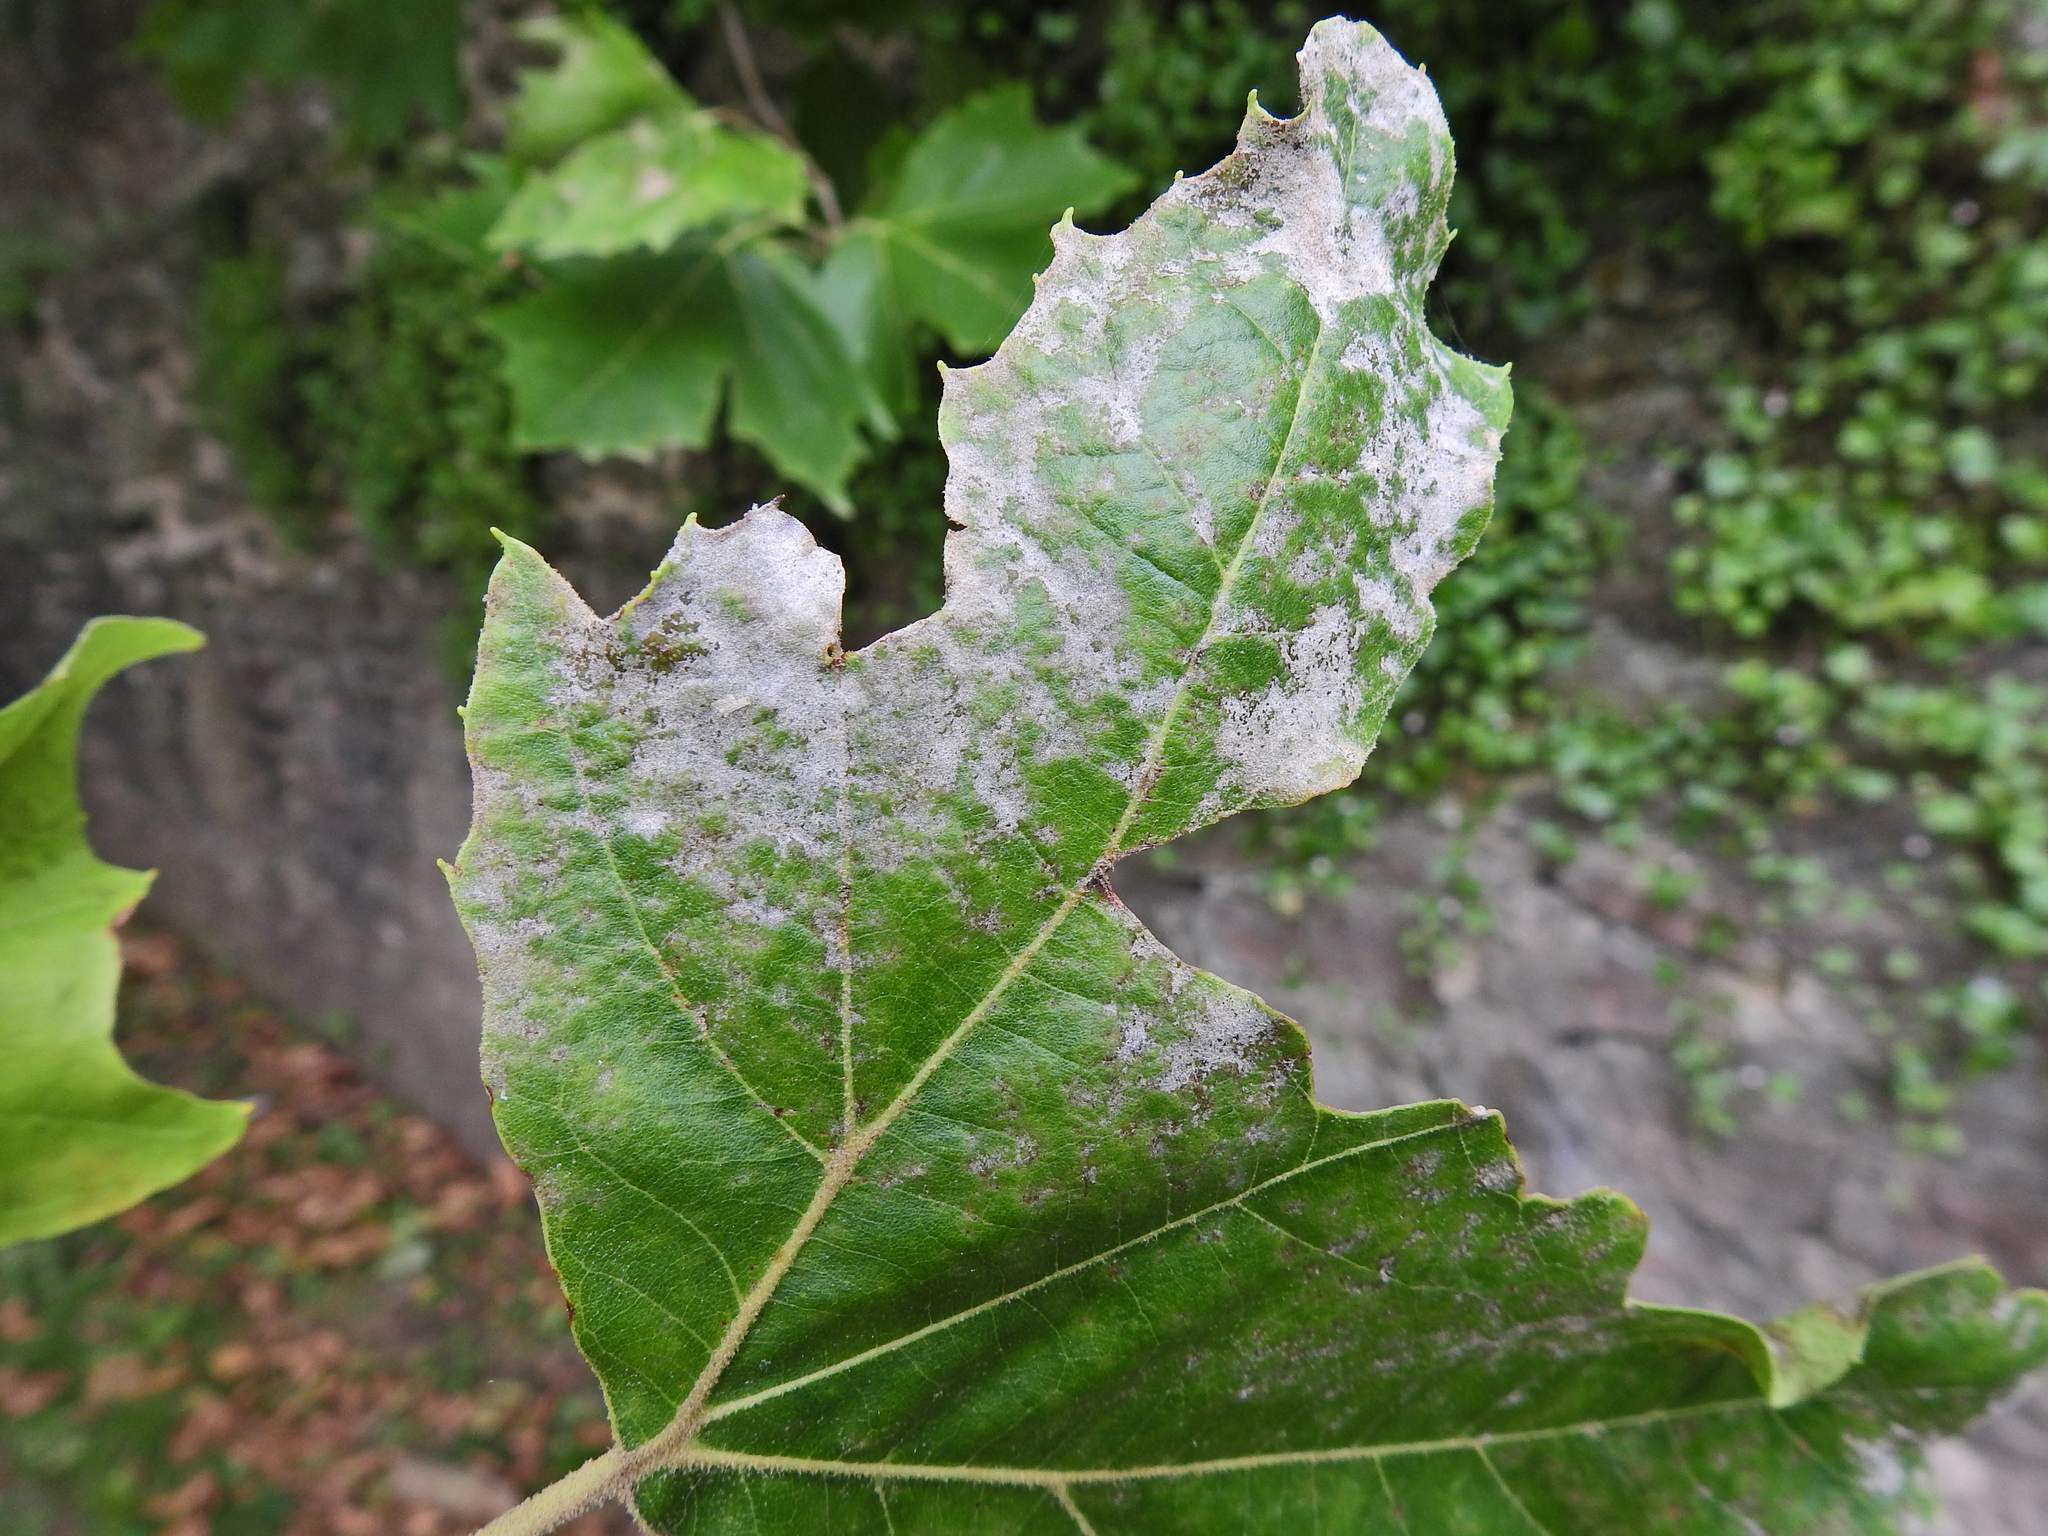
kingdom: Fungi
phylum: Ascomycota
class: Leotiomycetes
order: Helotiales
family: Erysiphaceae
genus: Erysiphe
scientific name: Erysiphe platani
